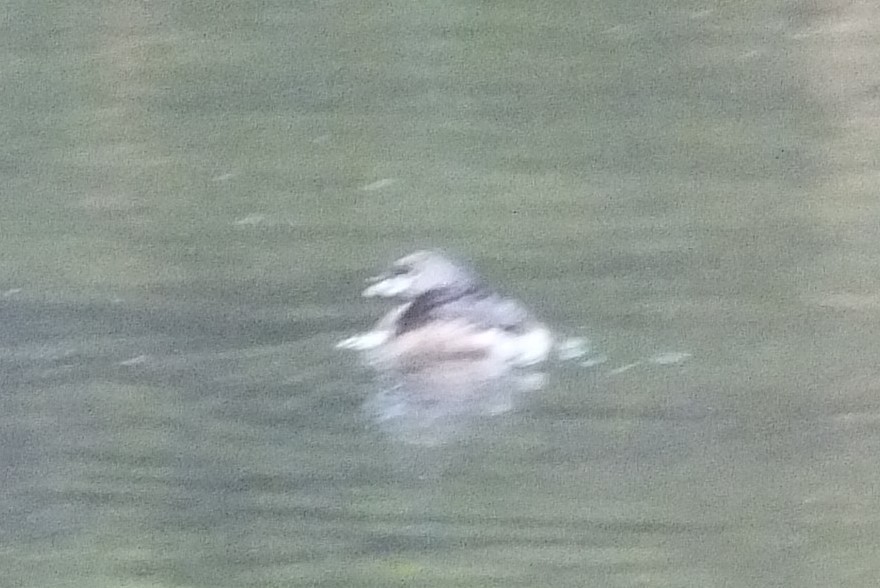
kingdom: Animalia
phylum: Chordata
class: Aves
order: Podicipediformes
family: Podicipedidae
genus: Podilymbus
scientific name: Podilymbus podiceps
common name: Pied-billed grebe
